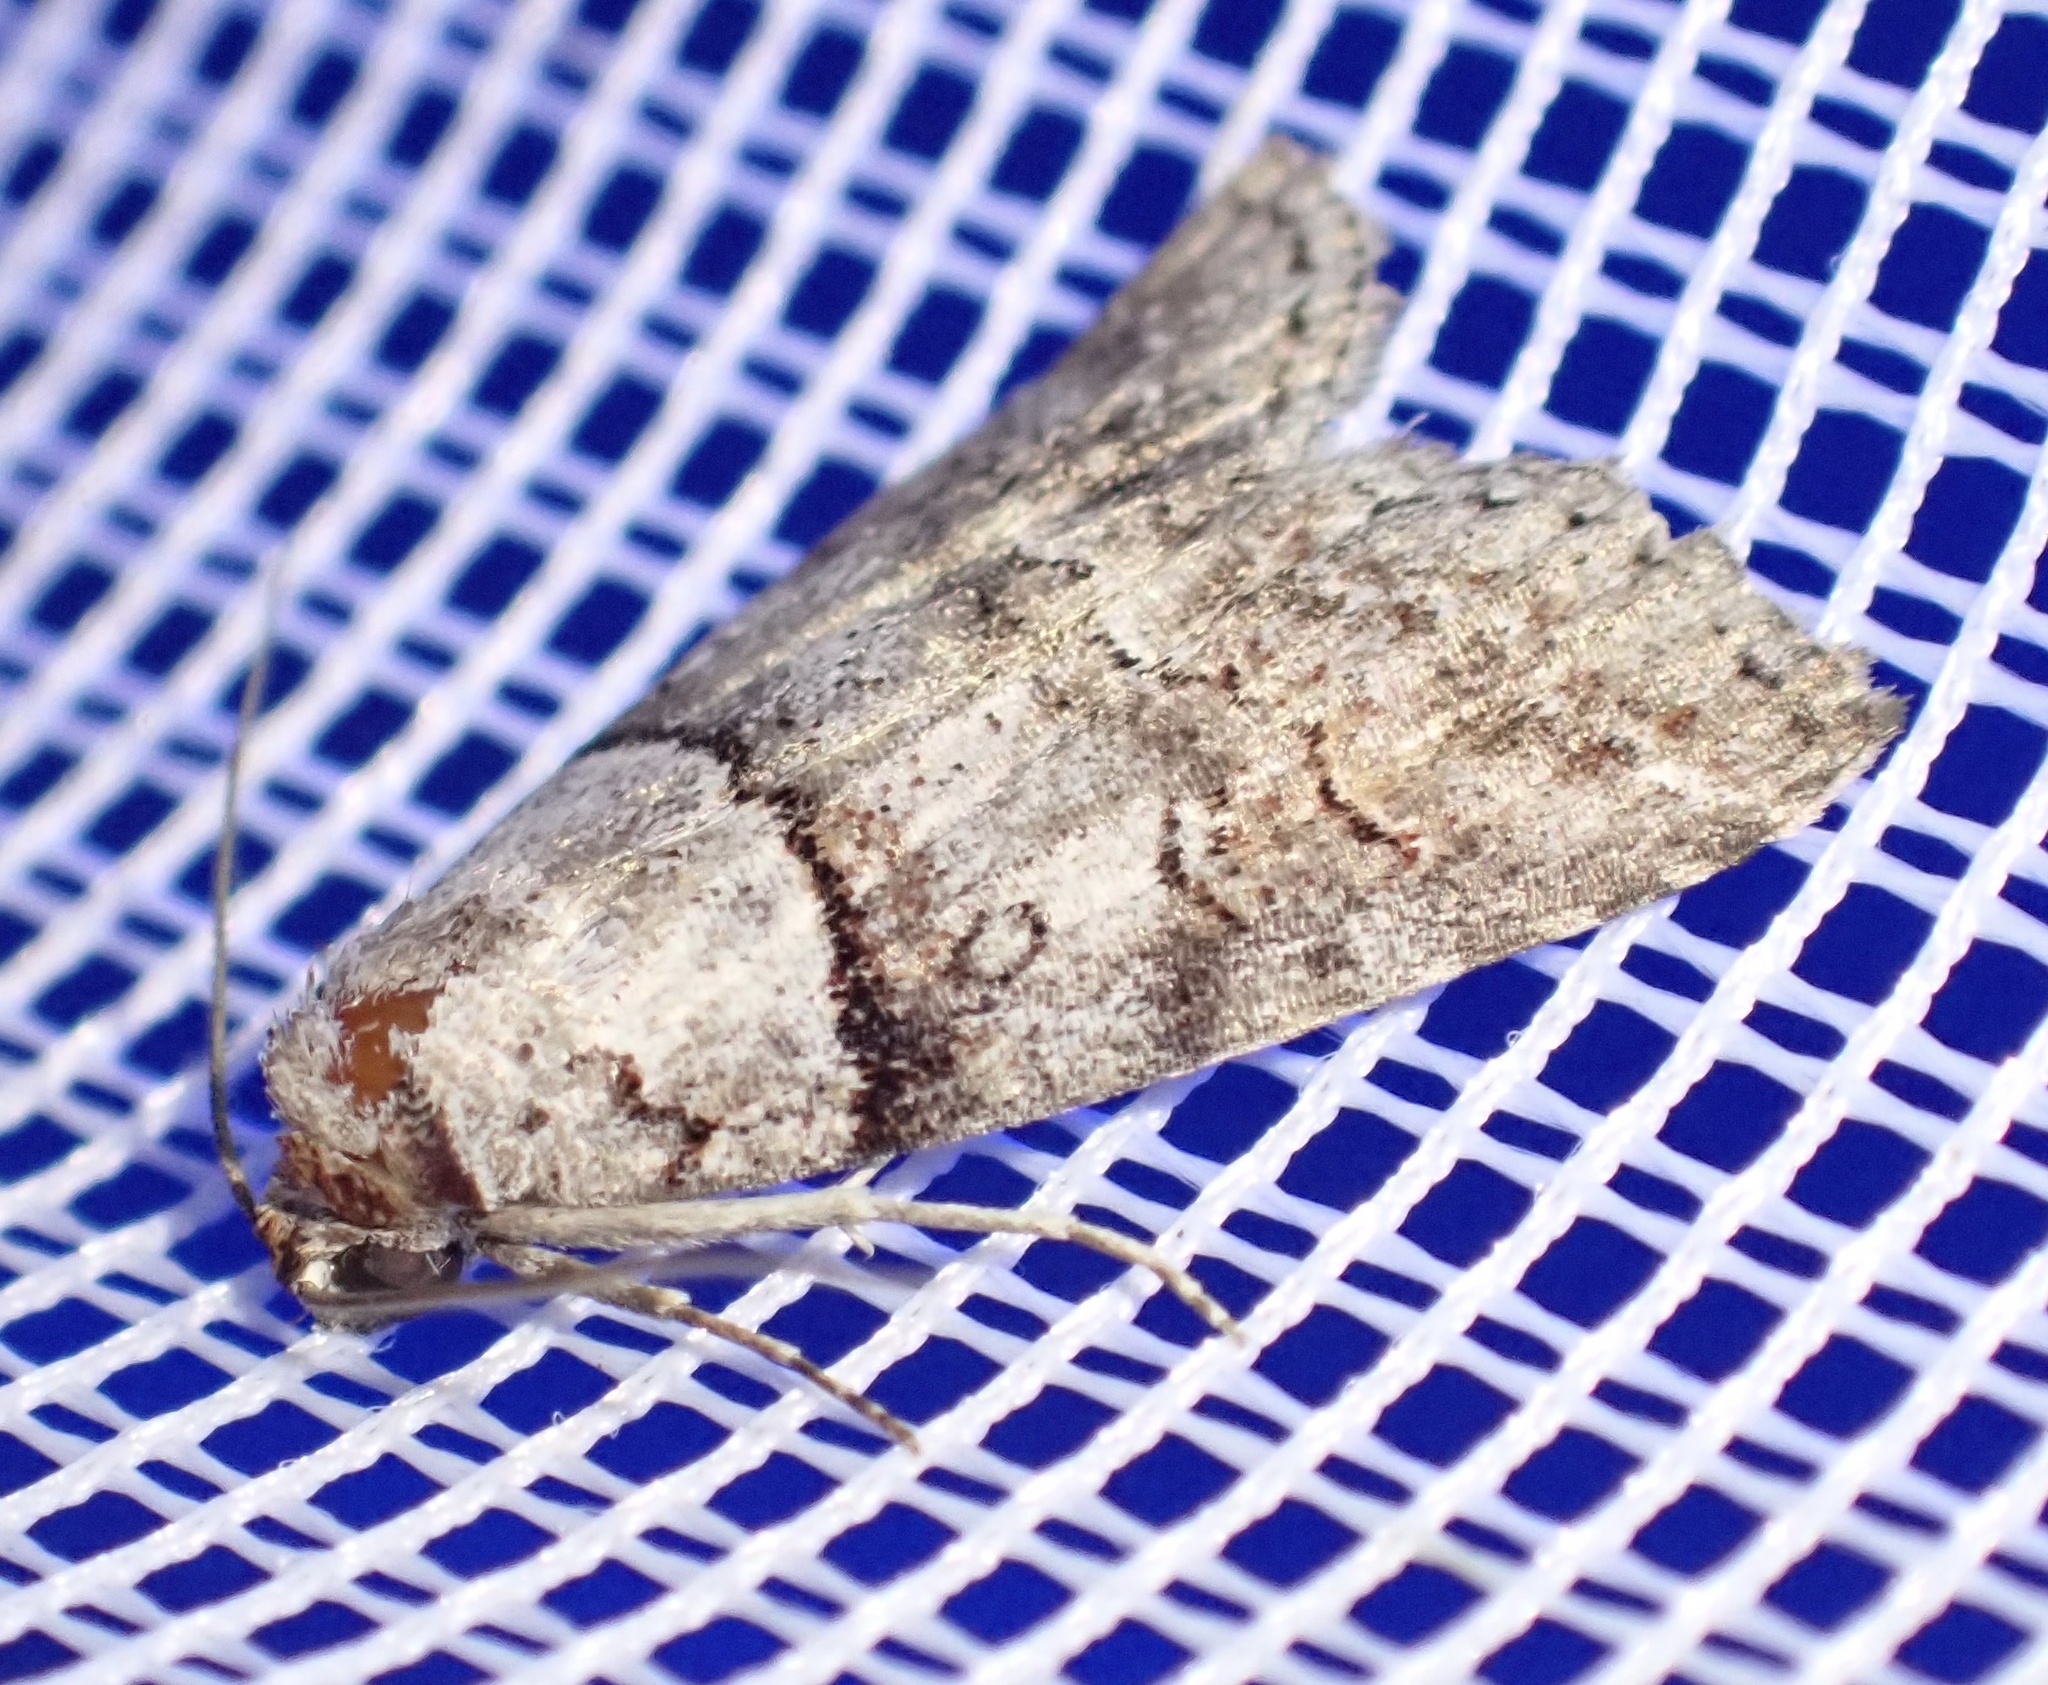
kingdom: Animalia
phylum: Arthropoda
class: Insecta
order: Lepidoptera
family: Nolidae
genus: Calathusa
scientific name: Calathusa hypotherma
